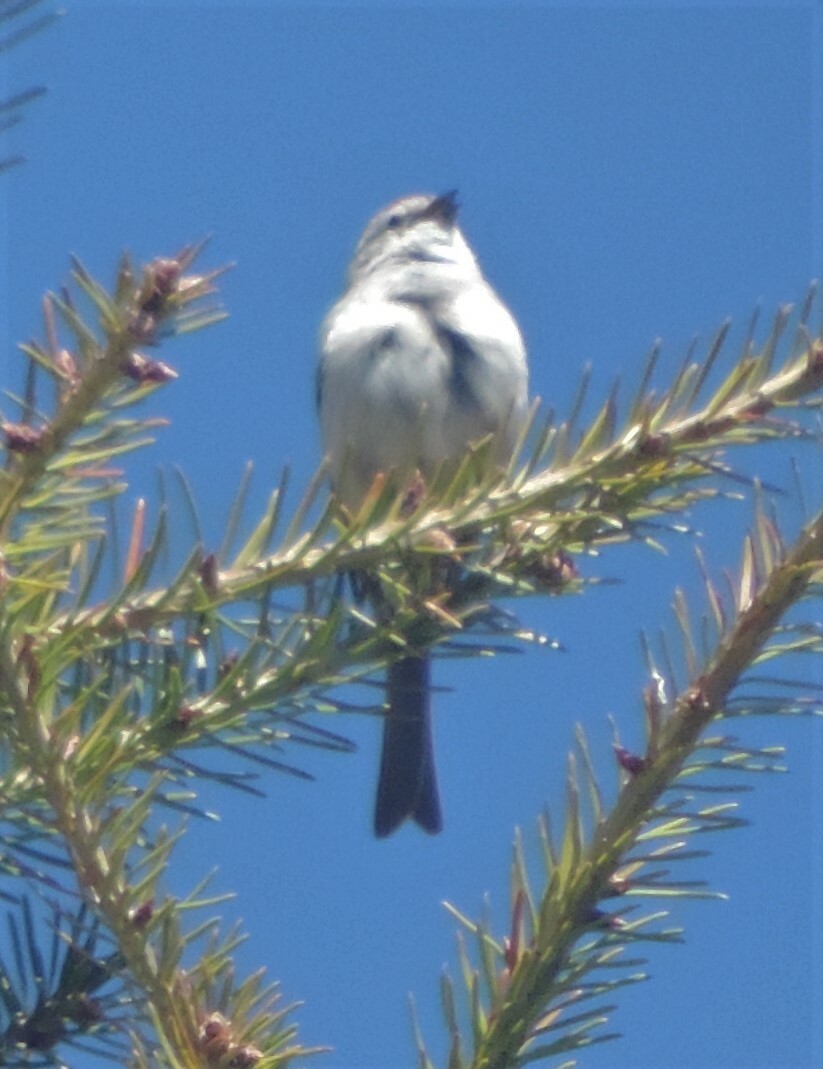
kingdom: Animalia
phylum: Chordata
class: Aves
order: Passeriformes
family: Passerellidae
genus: Spizella
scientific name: Spizella passerina
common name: Chipping sparrow
